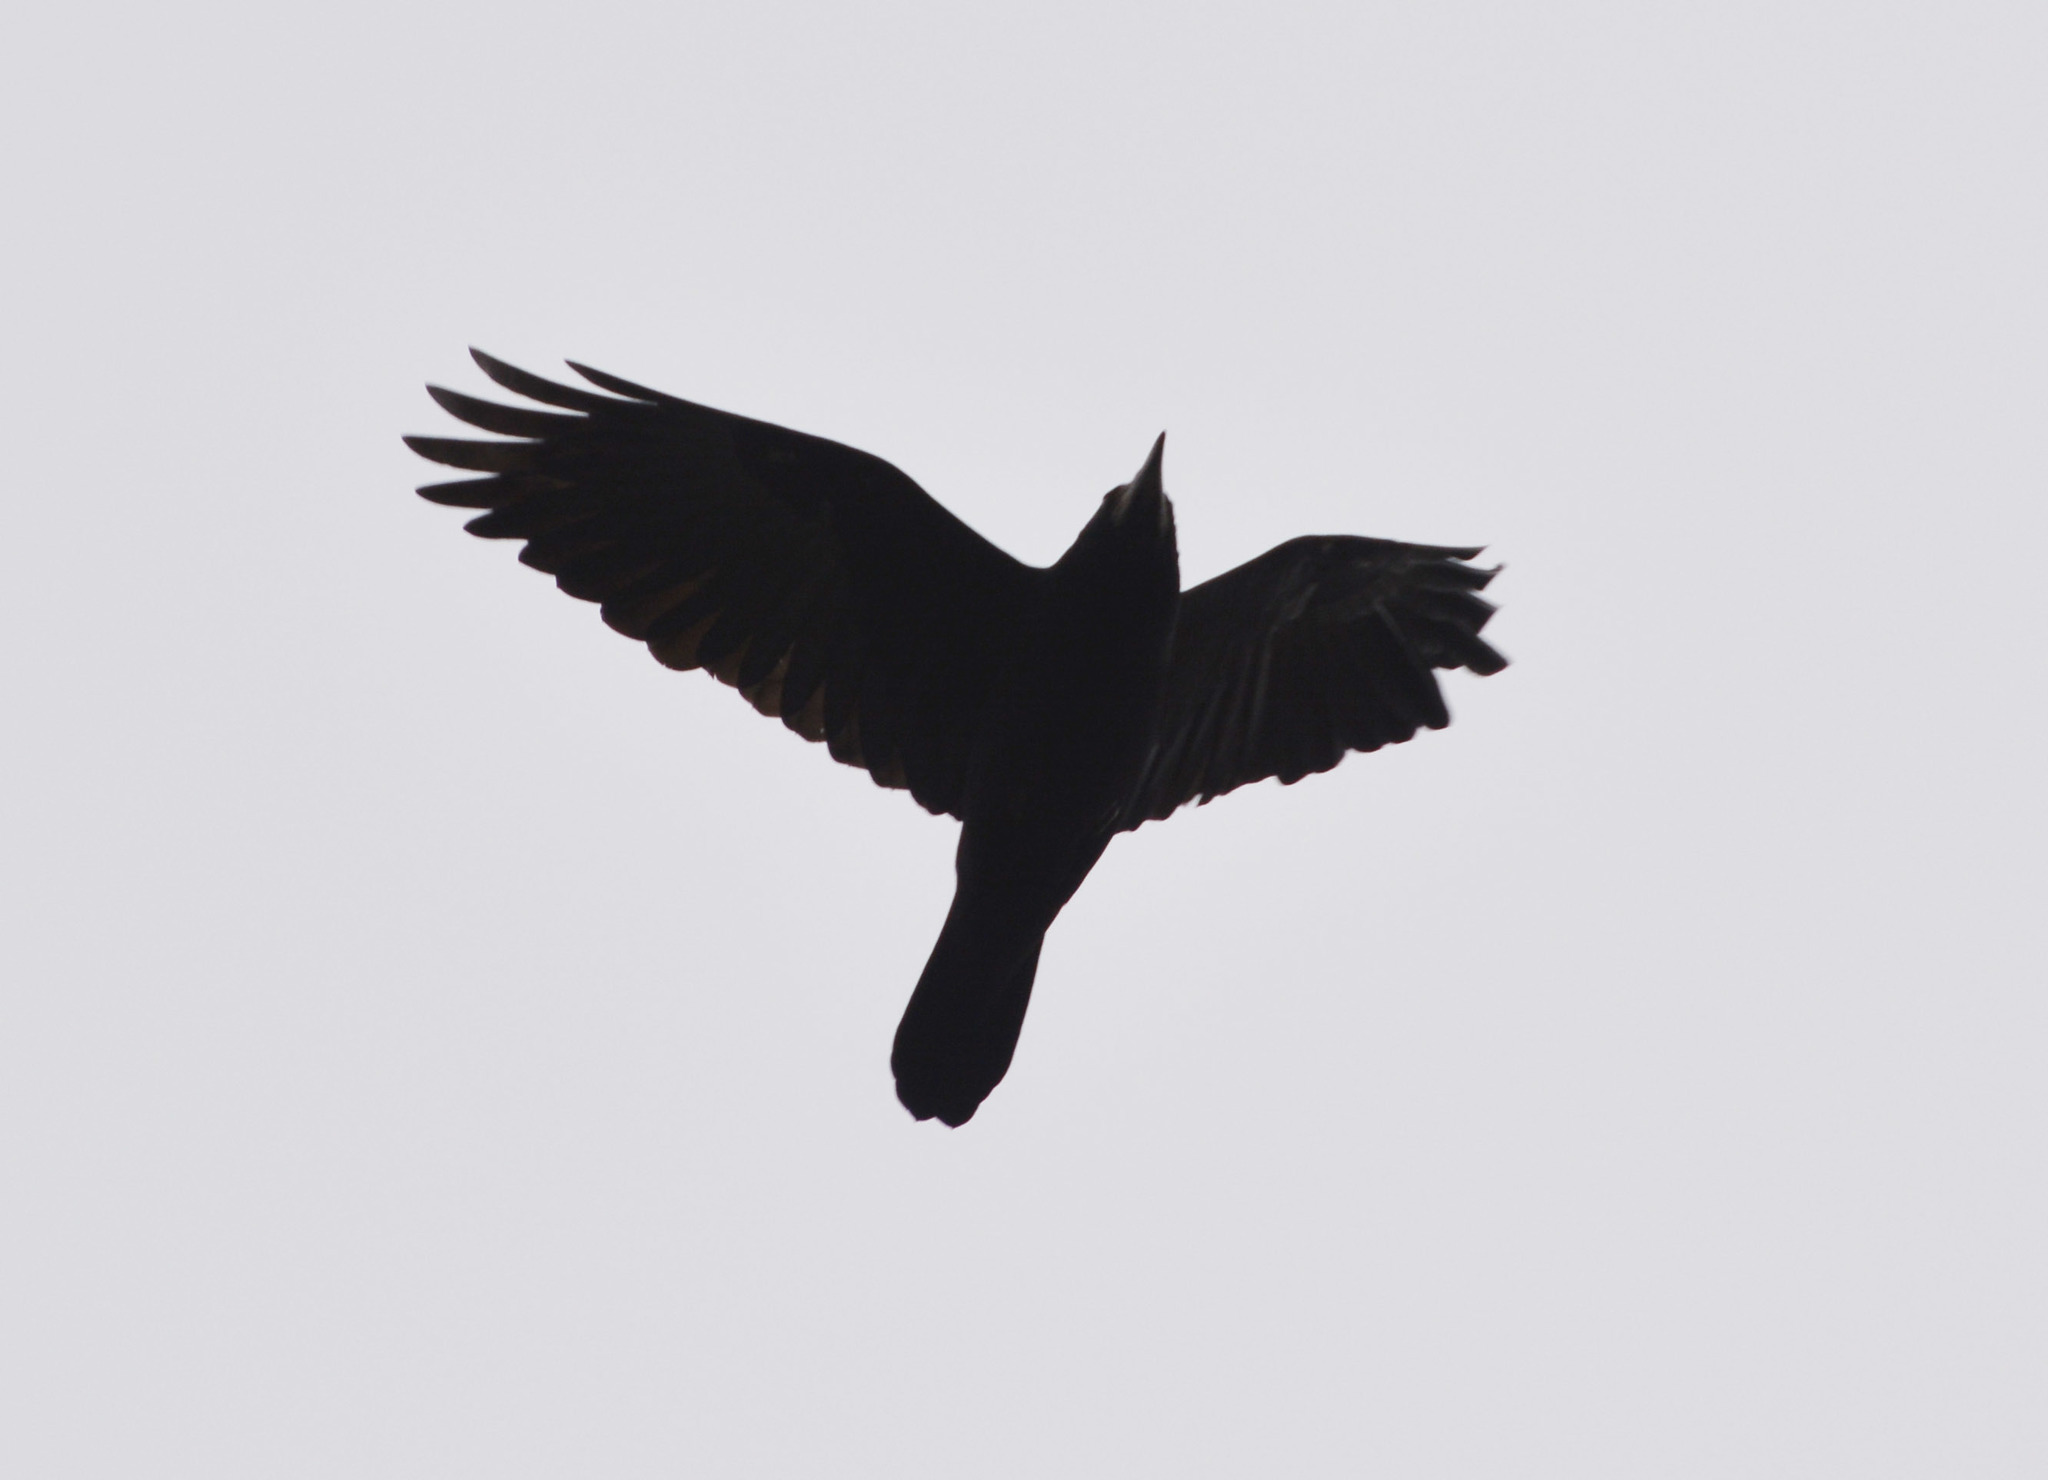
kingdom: Animalia
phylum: Chordata
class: Aves
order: Passeriformes
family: Corvidae
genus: Corvus
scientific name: Corvus frugilegus
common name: Rook
